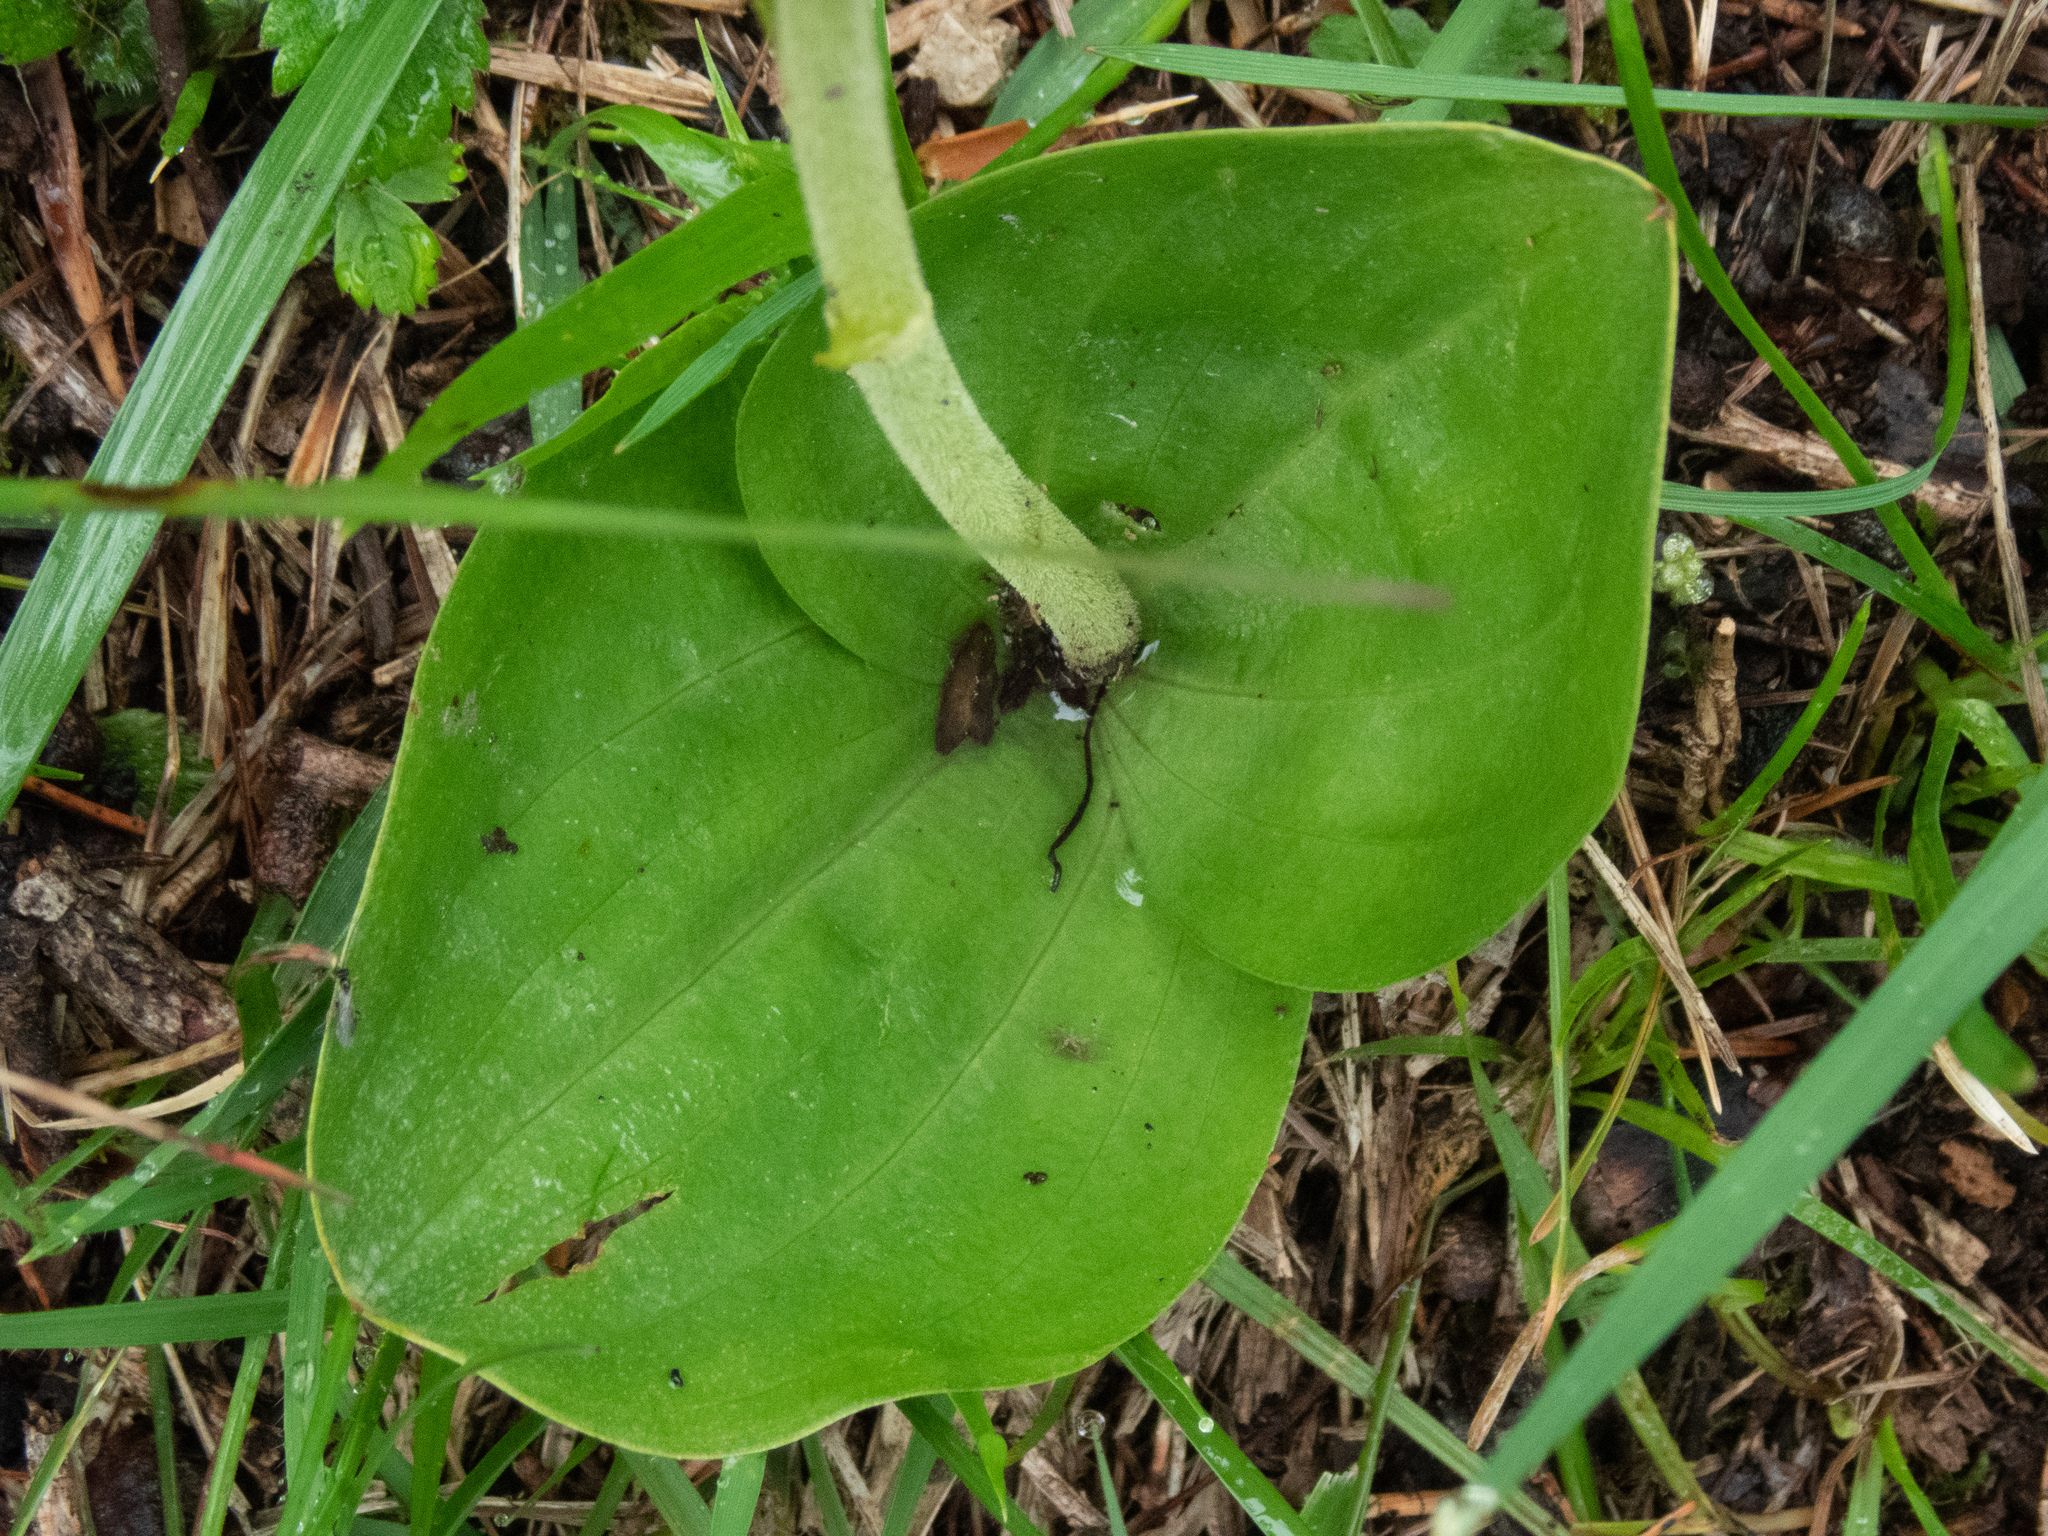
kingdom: Plantae
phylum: Tracheophyta
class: Liliopsida
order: Asparagales
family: Orchidaceae
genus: Neottia
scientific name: Neottia ovata
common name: Common twayblade
